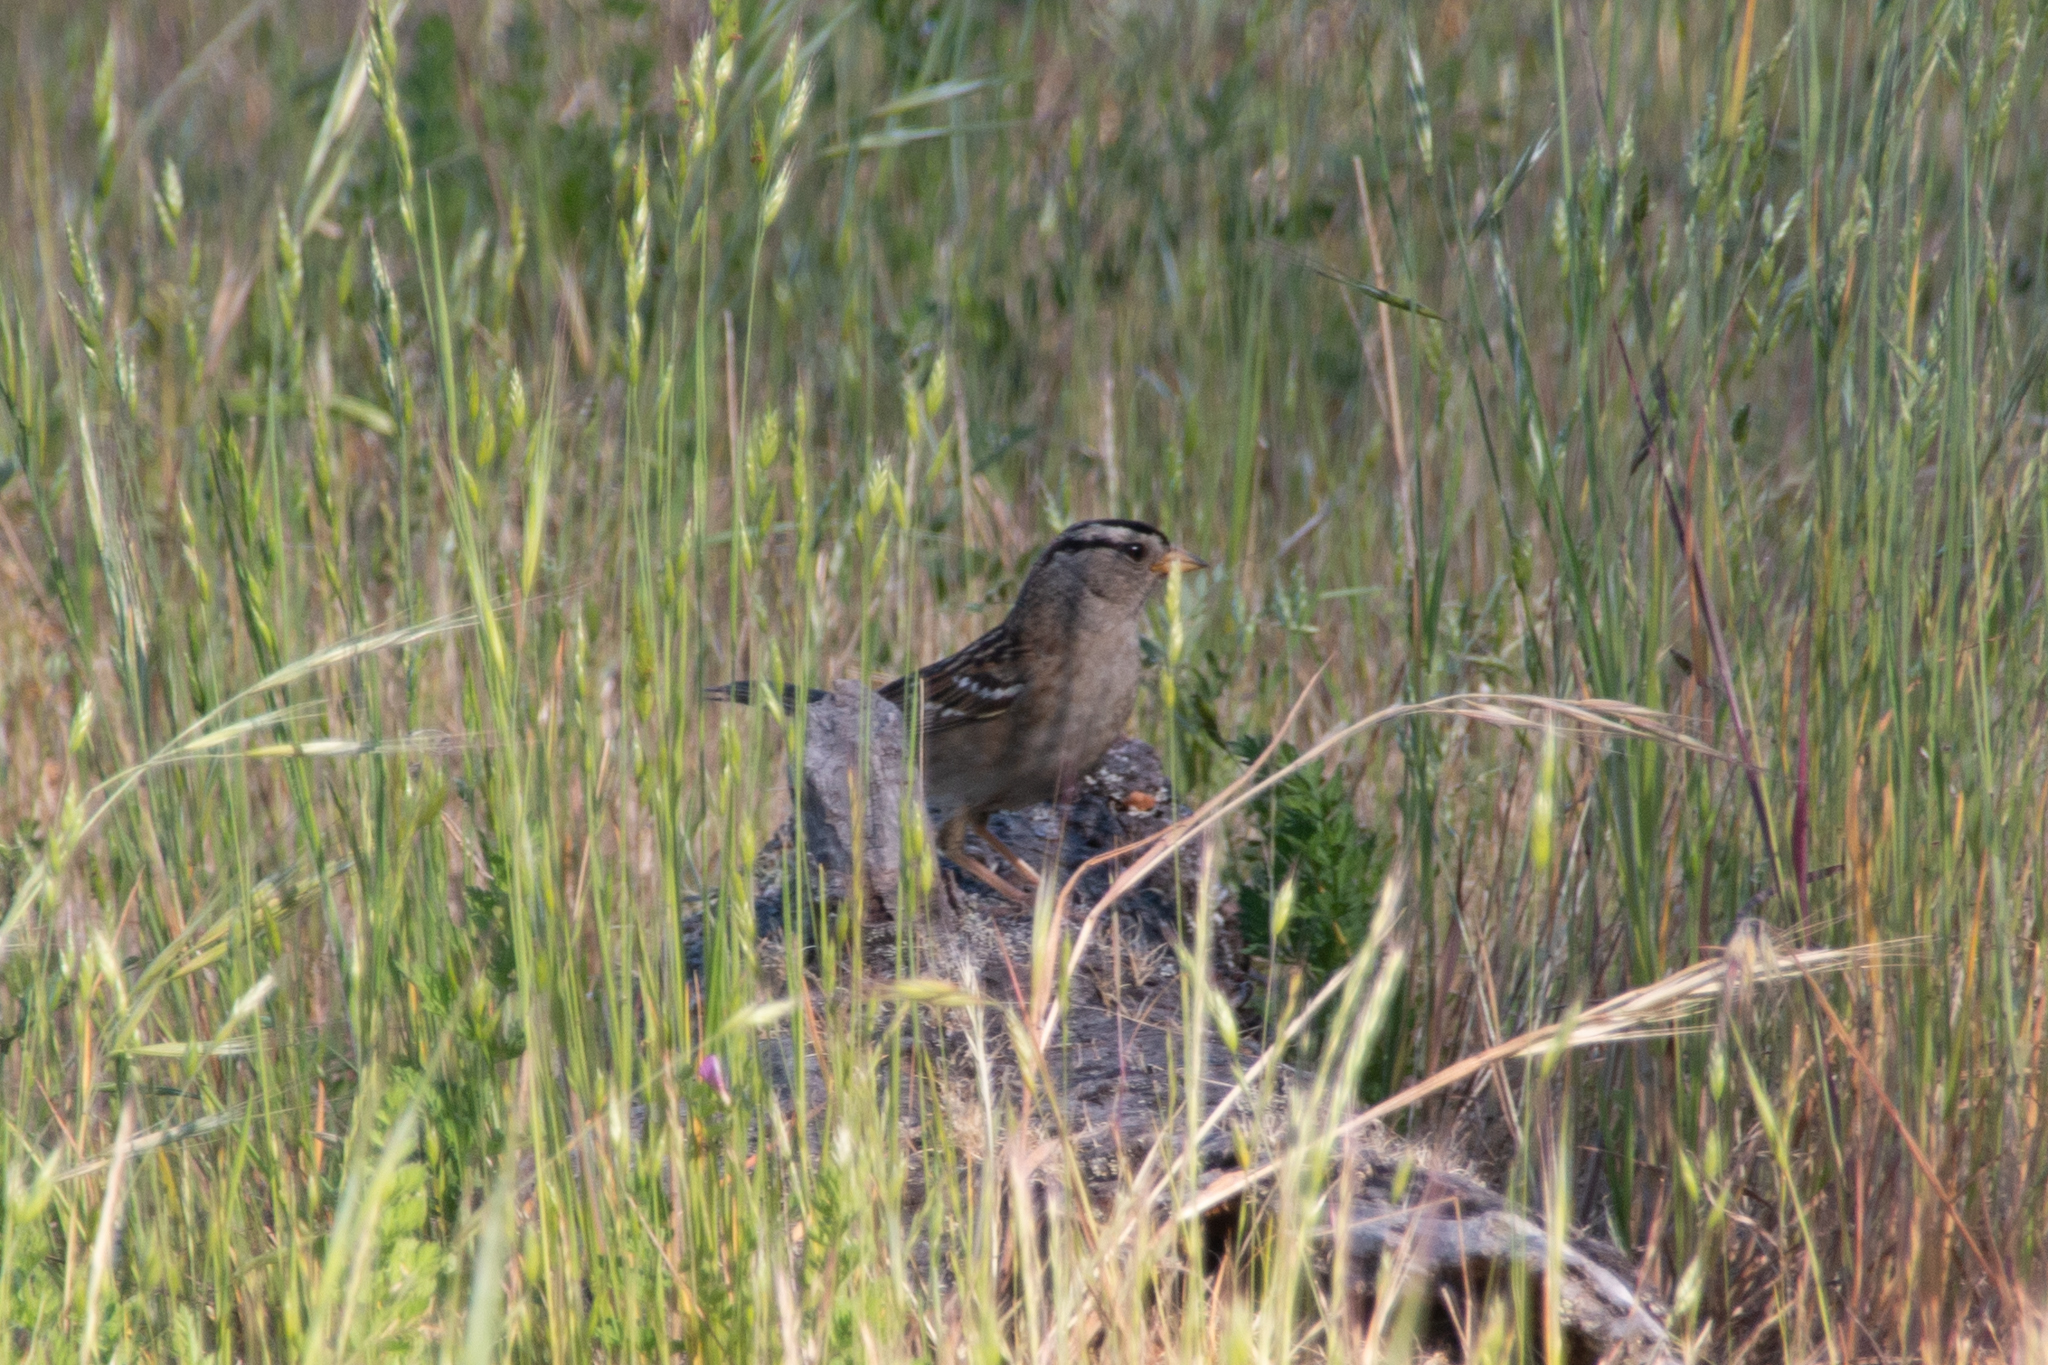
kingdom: Animalia
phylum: Chordata
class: Aves
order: Passeriformes
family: Passerellidae
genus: Zonotrichia
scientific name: Zonotrichia leucophrys
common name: White-crowned sparrow
